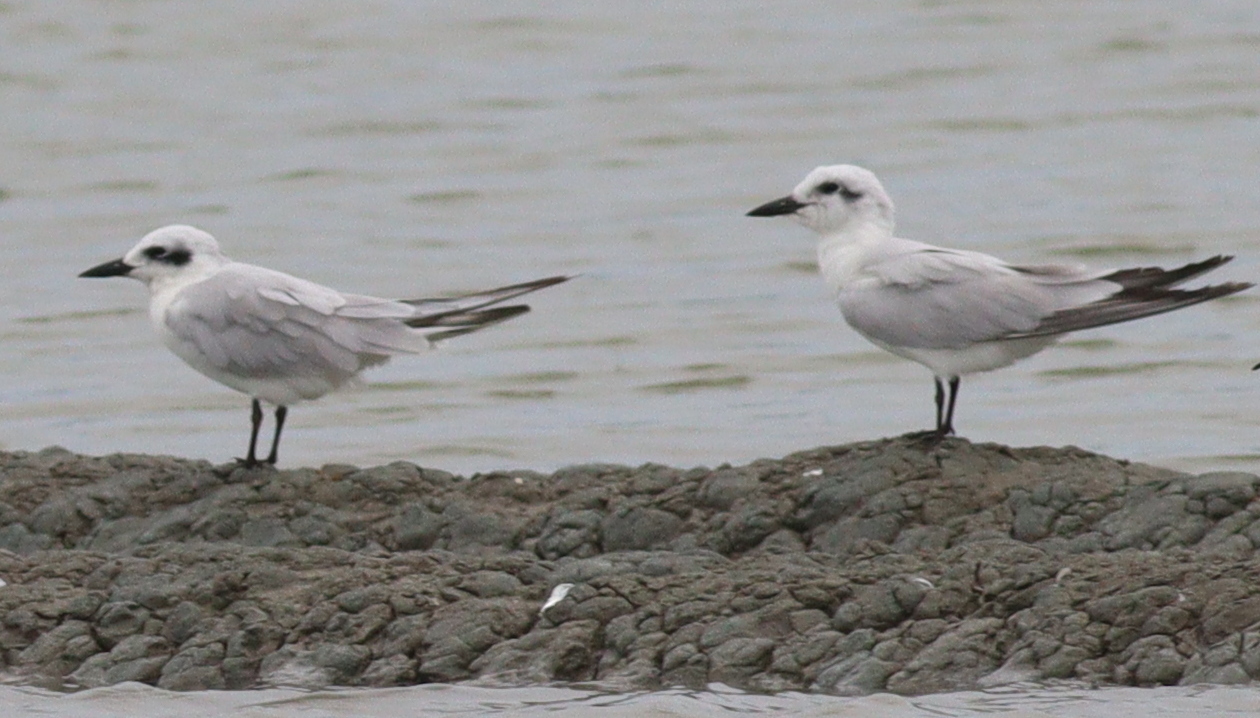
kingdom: Animalia
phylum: Chordata
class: Aves
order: Charadriiformes
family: Laridae
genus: Gelochelidon
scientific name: Gelochelidon nilotica
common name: Gull-billed tern
